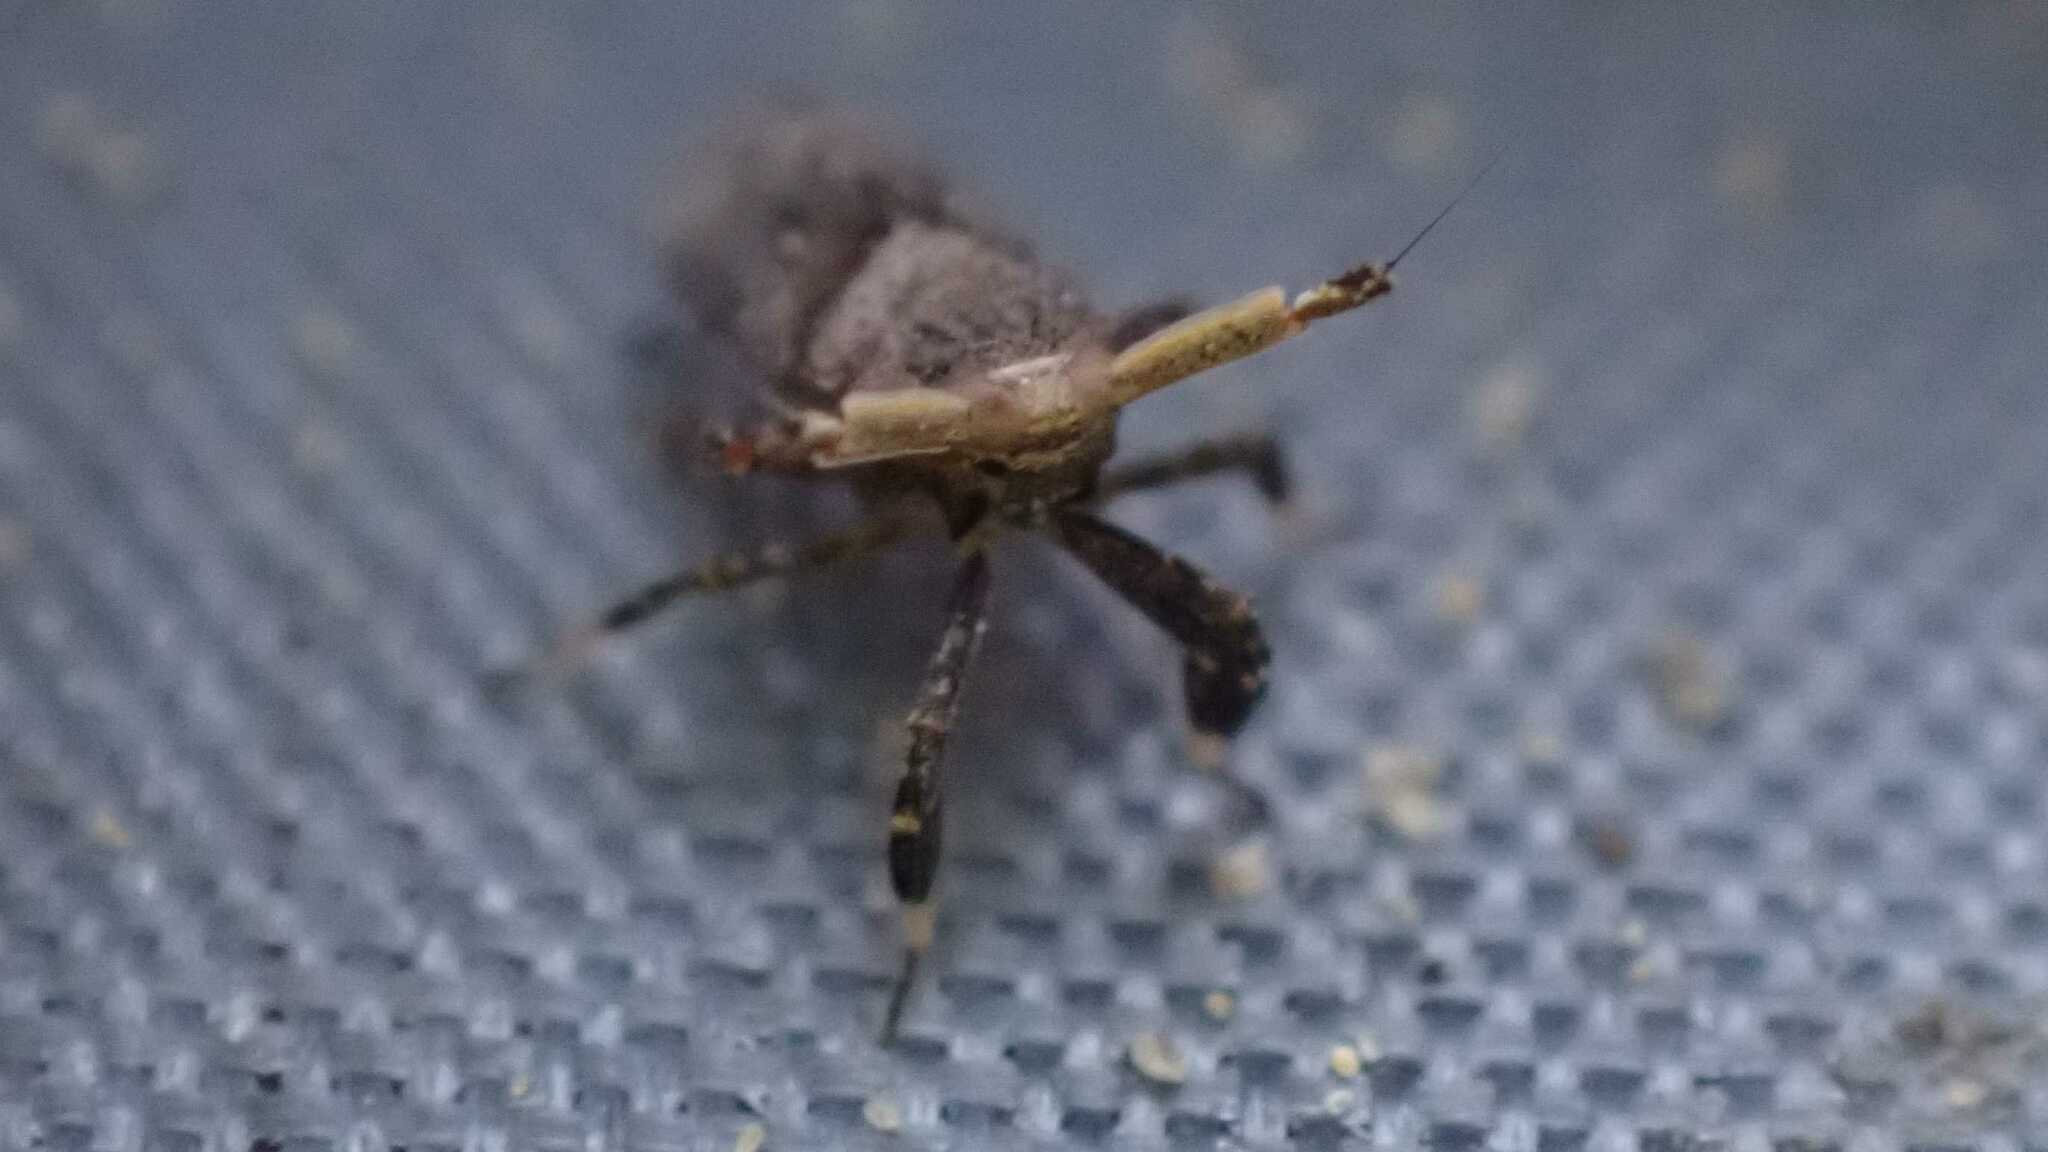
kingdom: Animalia
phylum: Arthropoda
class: Insecta
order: Hemiptera
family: Delphacidae
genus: Asiraca
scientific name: Asiraca clavicornis
